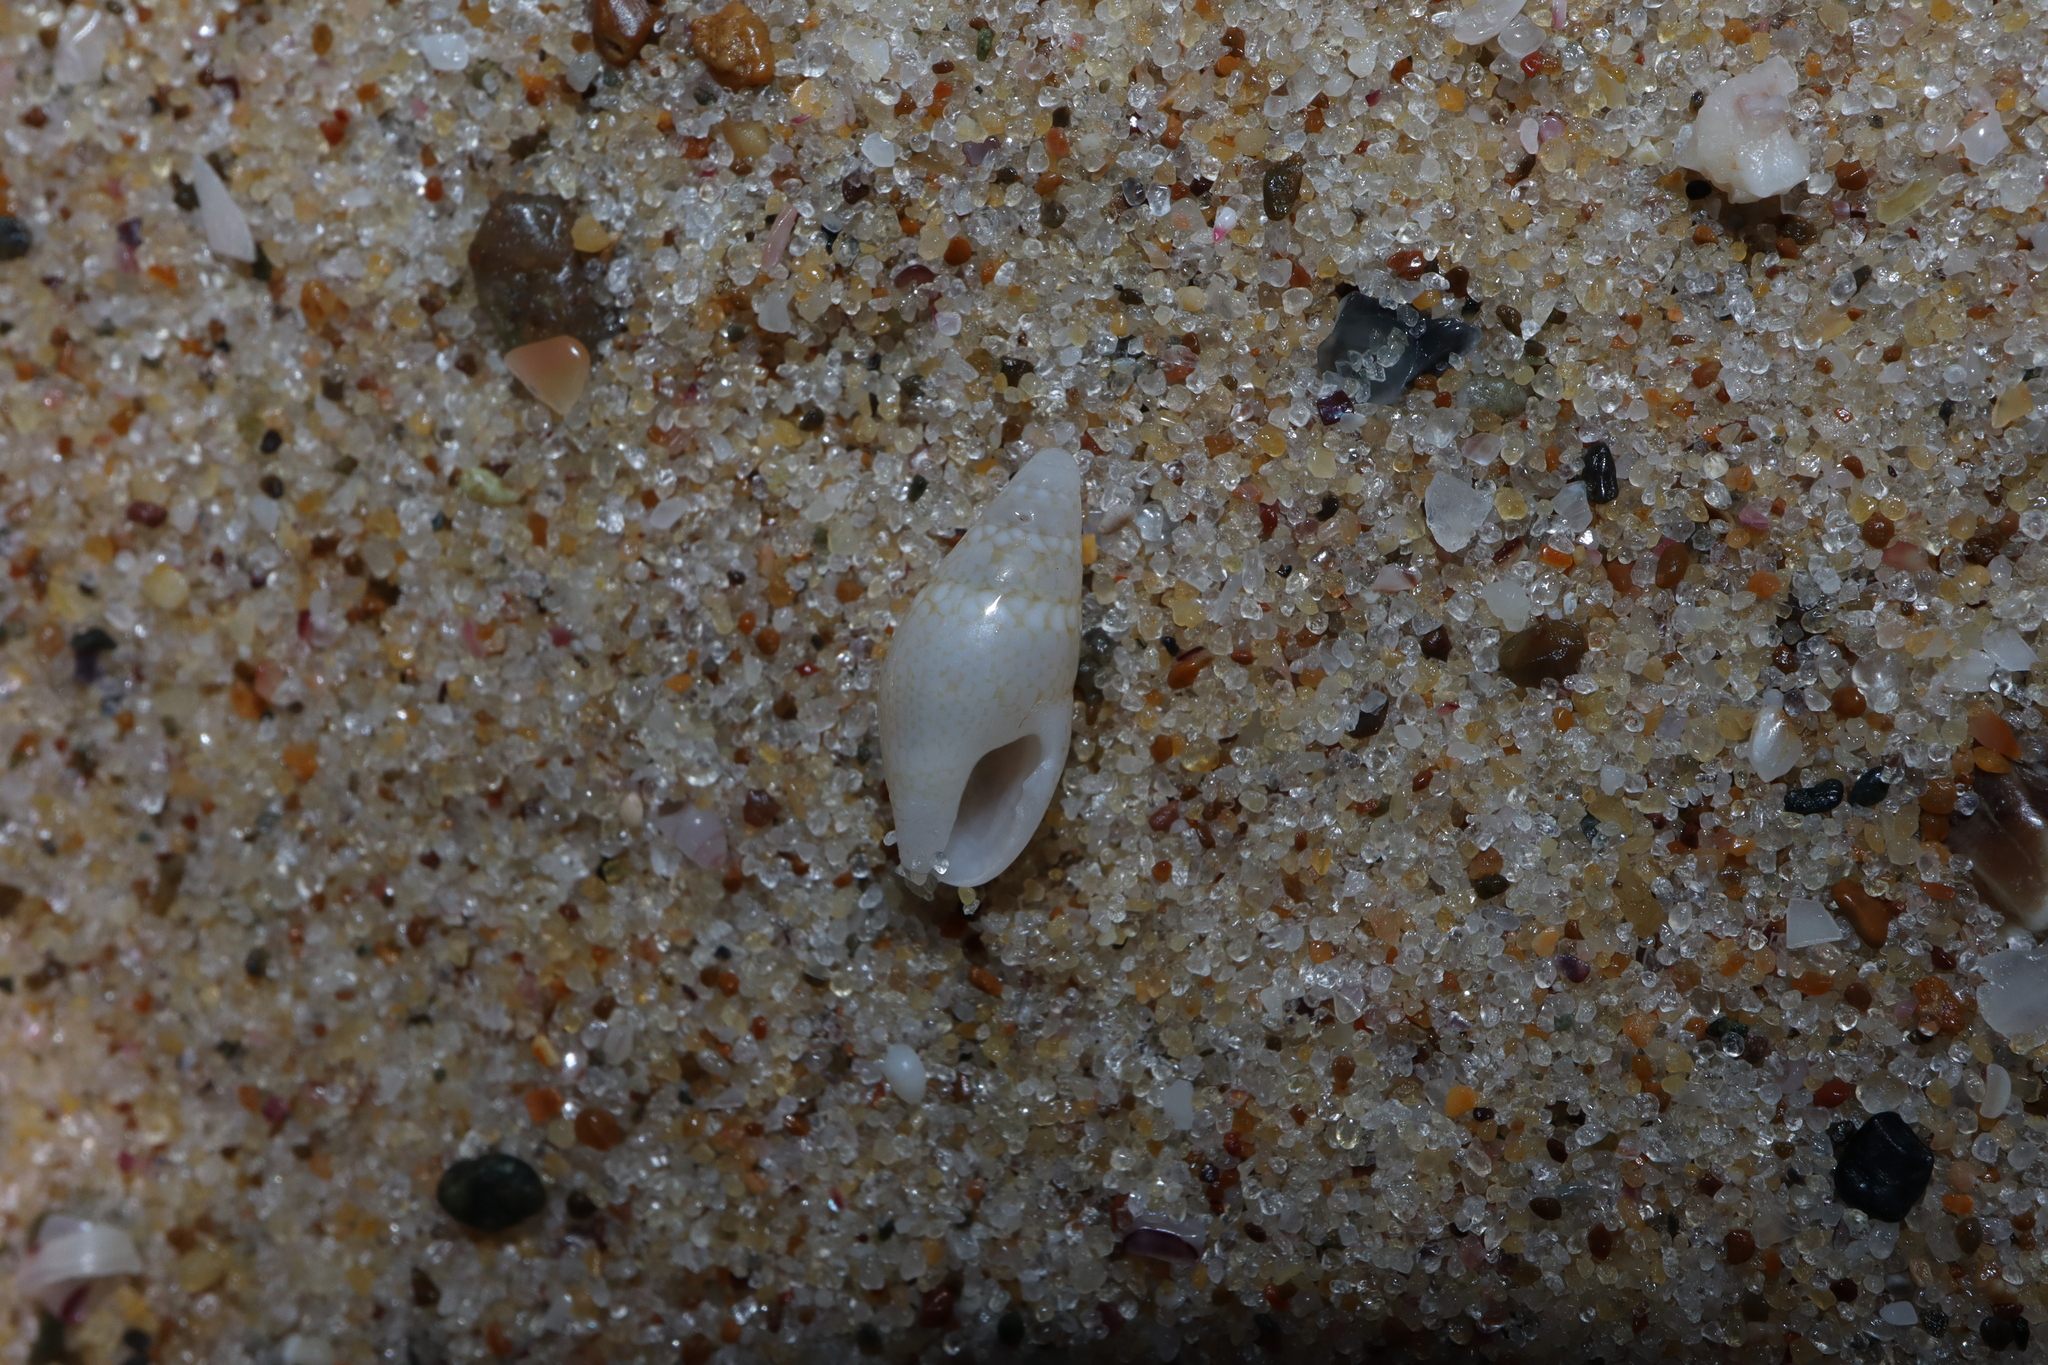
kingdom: Animalia
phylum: Mollusca
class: Gastropoda
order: Neogastropoda
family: Columbellidae
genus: Mitrella
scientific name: Mitrella tayloriana
